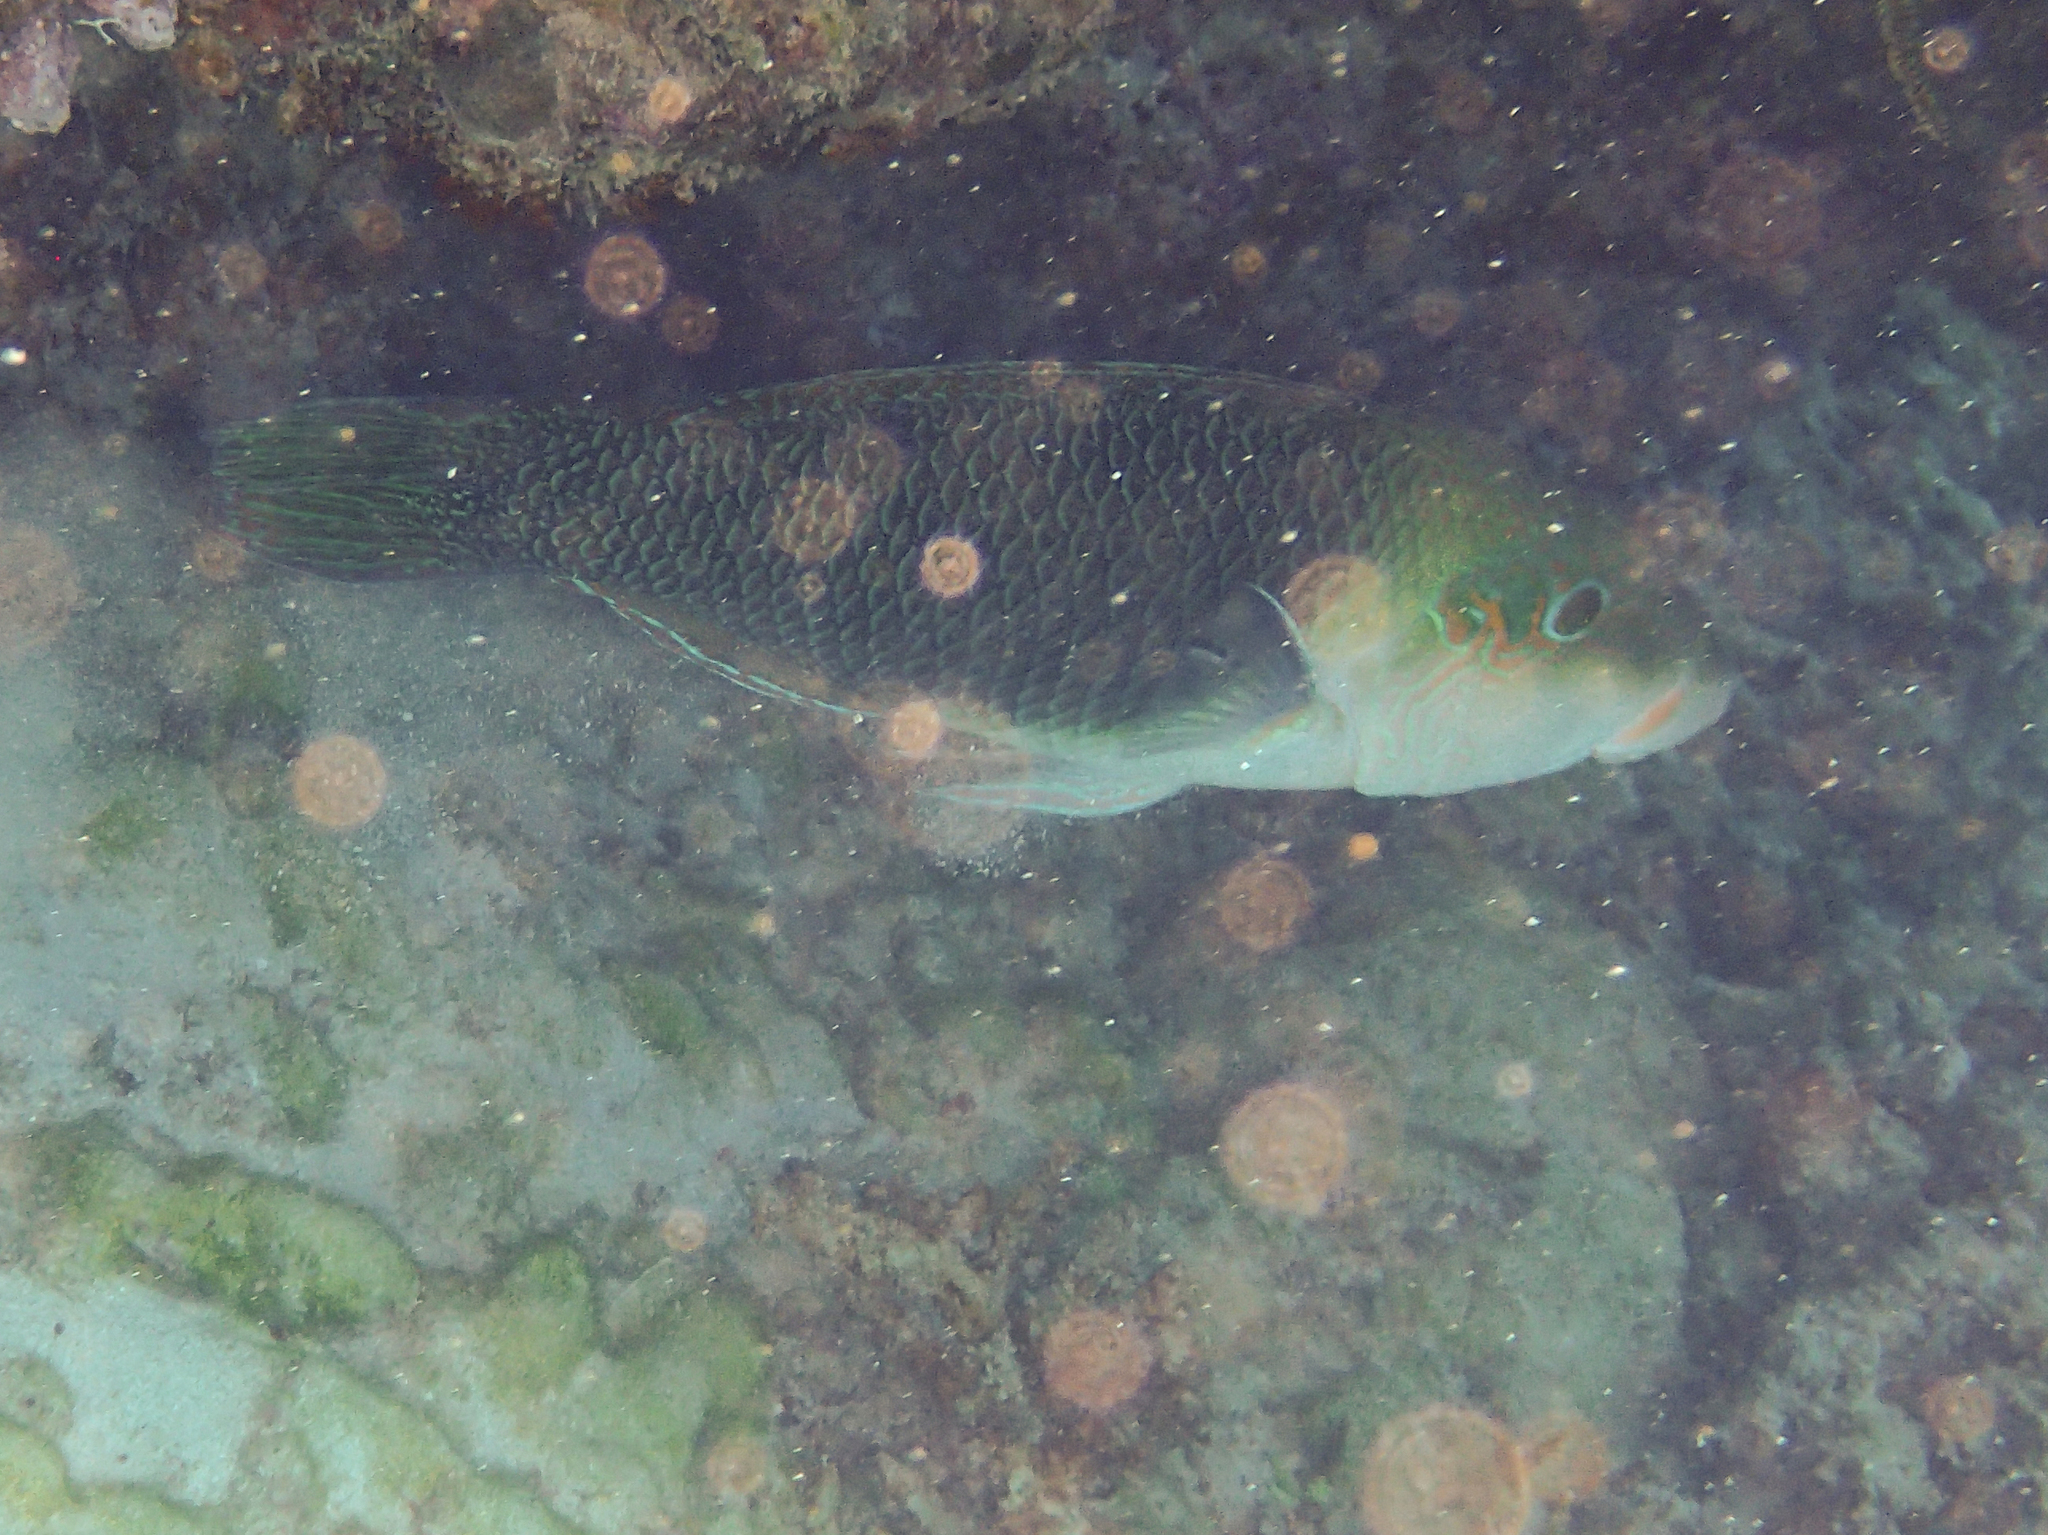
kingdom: Animalia
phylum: Chordata
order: Perciformes
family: Labridae
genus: Hemigymnus
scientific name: Hemigymnus melapterus
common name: Blackeye thicklip
